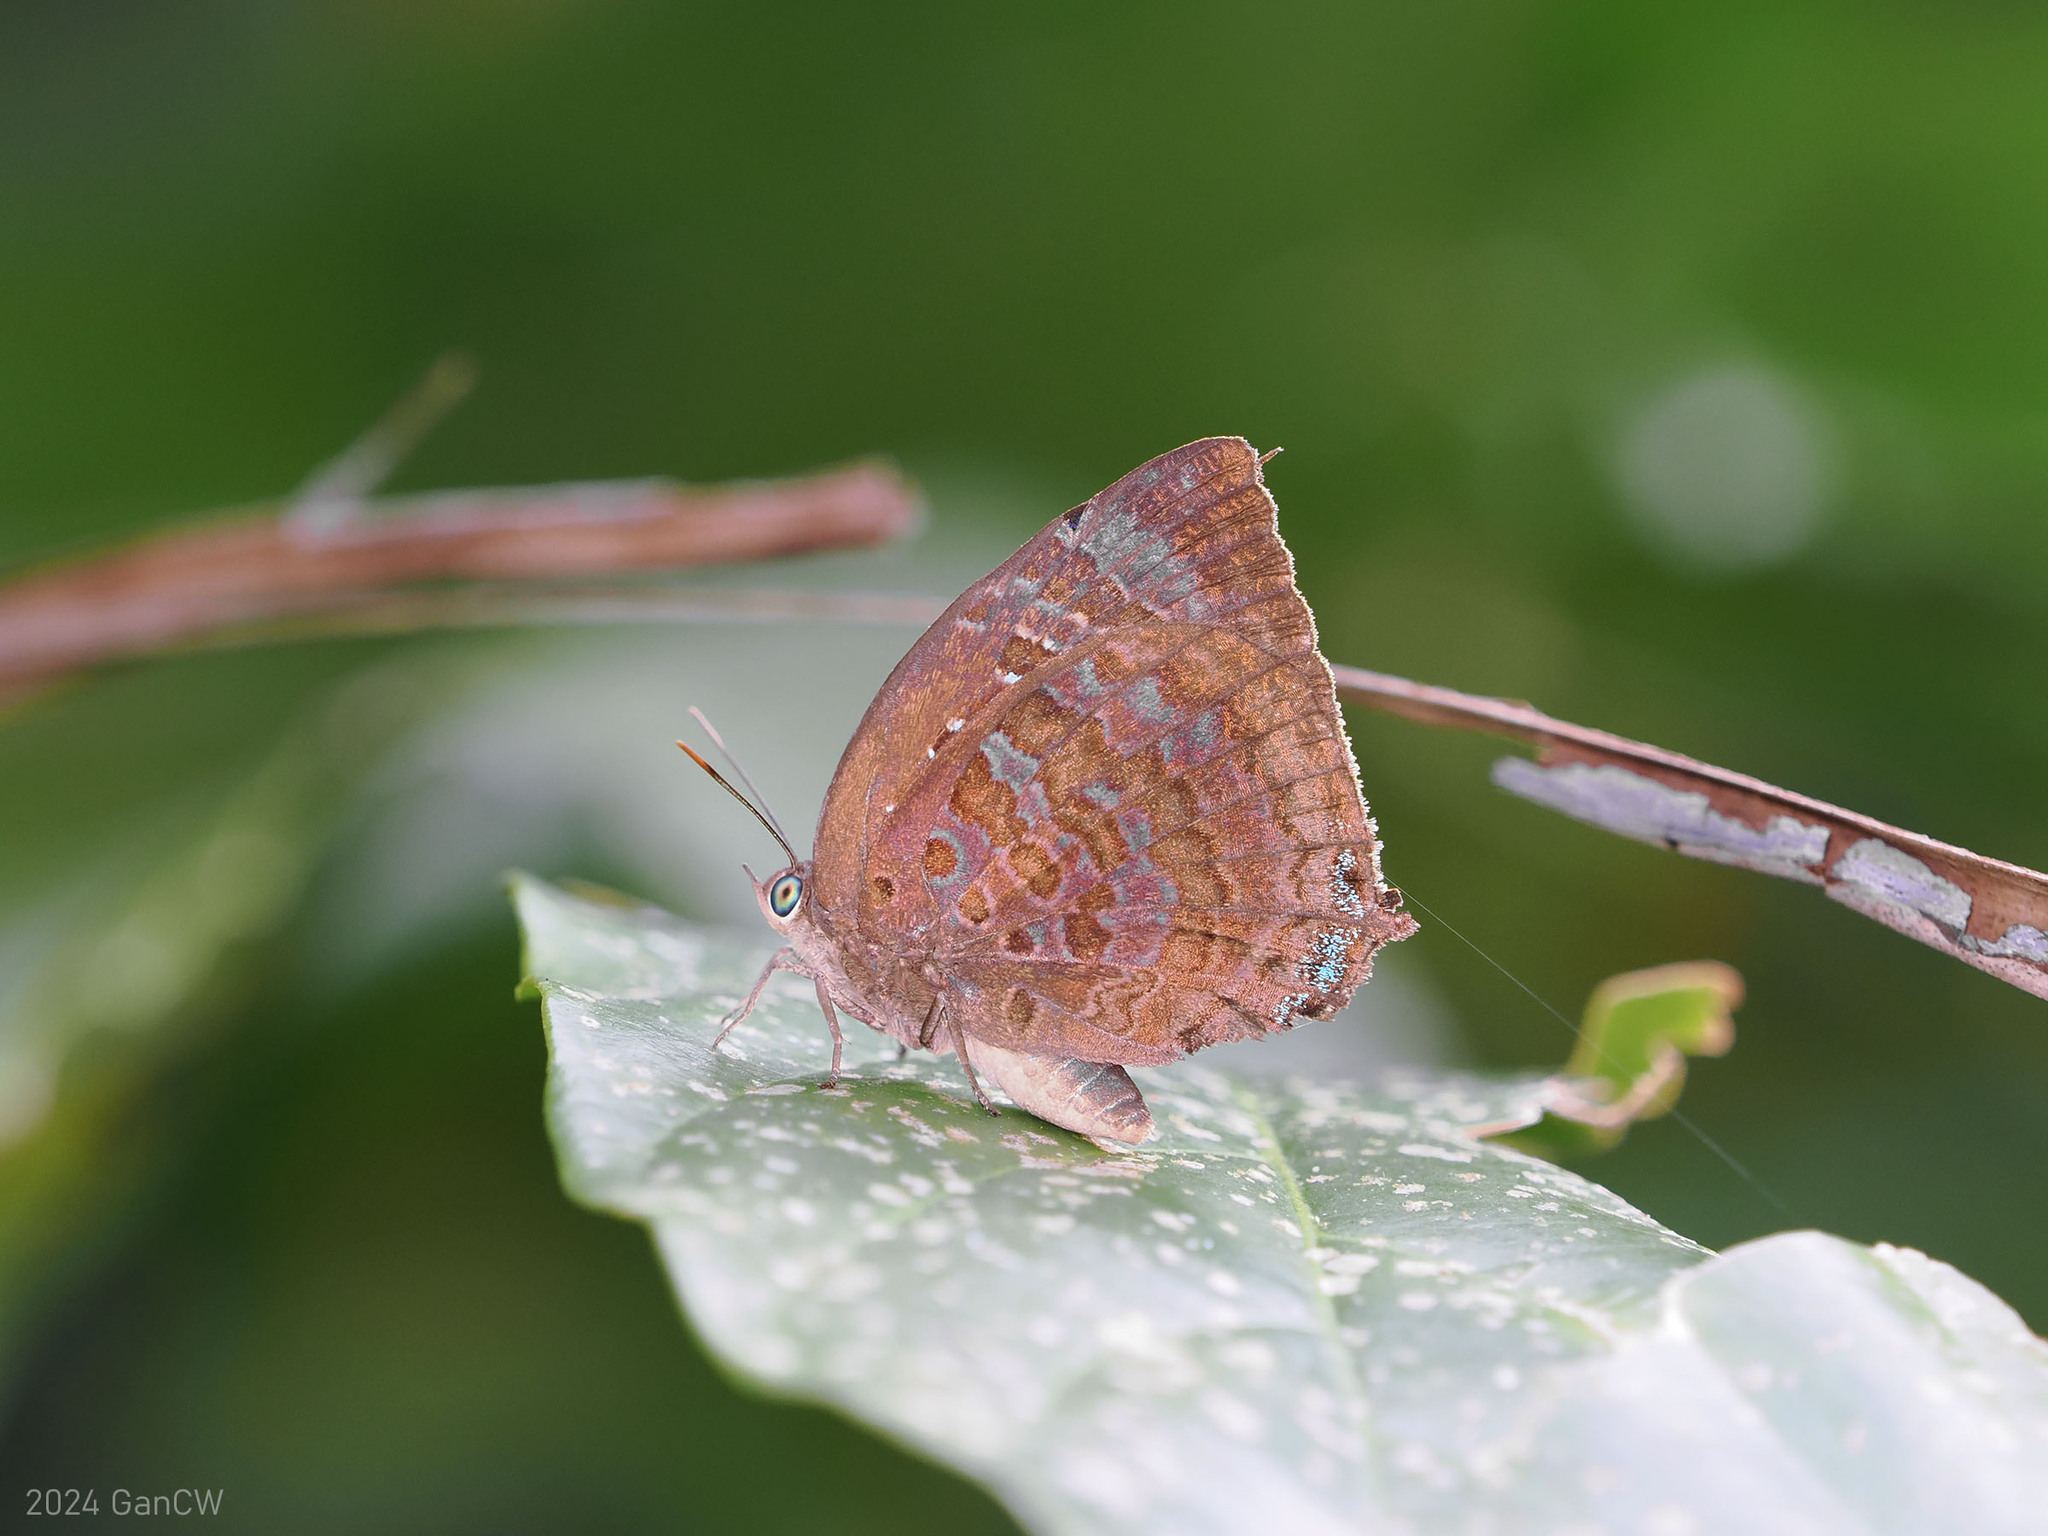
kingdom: Animalia
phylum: Arthropoda
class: Insecta
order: Lepidoptera
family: Lycaenidae
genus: Arhopala
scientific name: Arhopala centaurus
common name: Dull oak-blue
